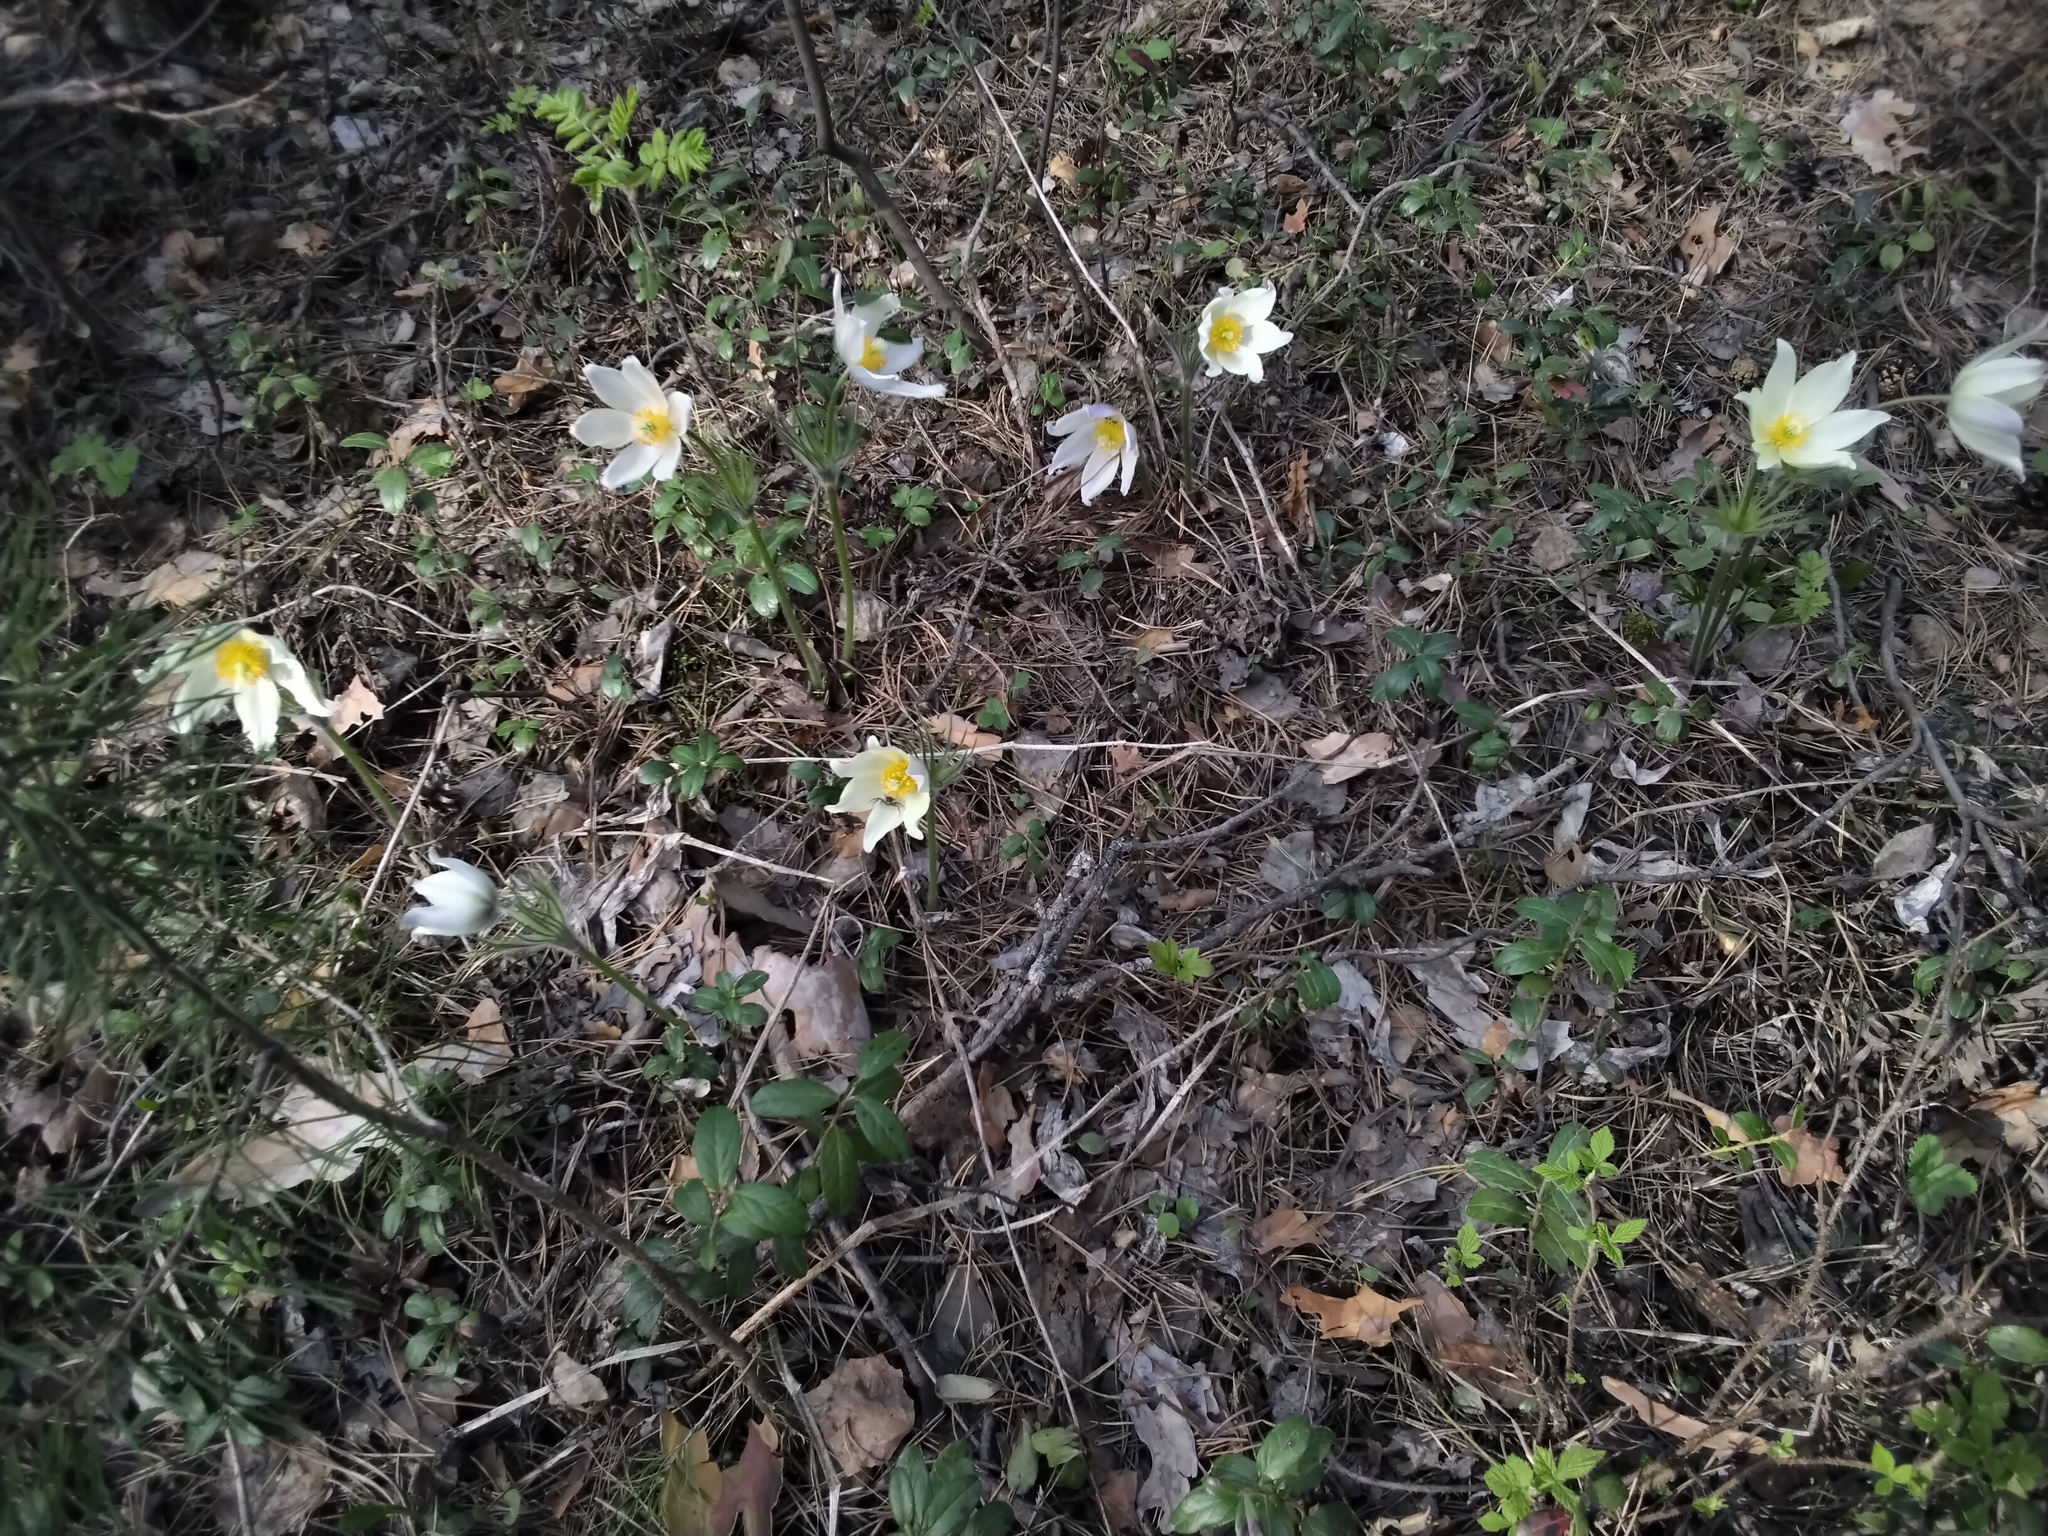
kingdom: Plantae
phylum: Tracheophyta
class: Magnoliopsida
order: Ranunculales
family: Ranunculaceae
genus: Pulsatilla
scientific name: Pulsatilla patens
